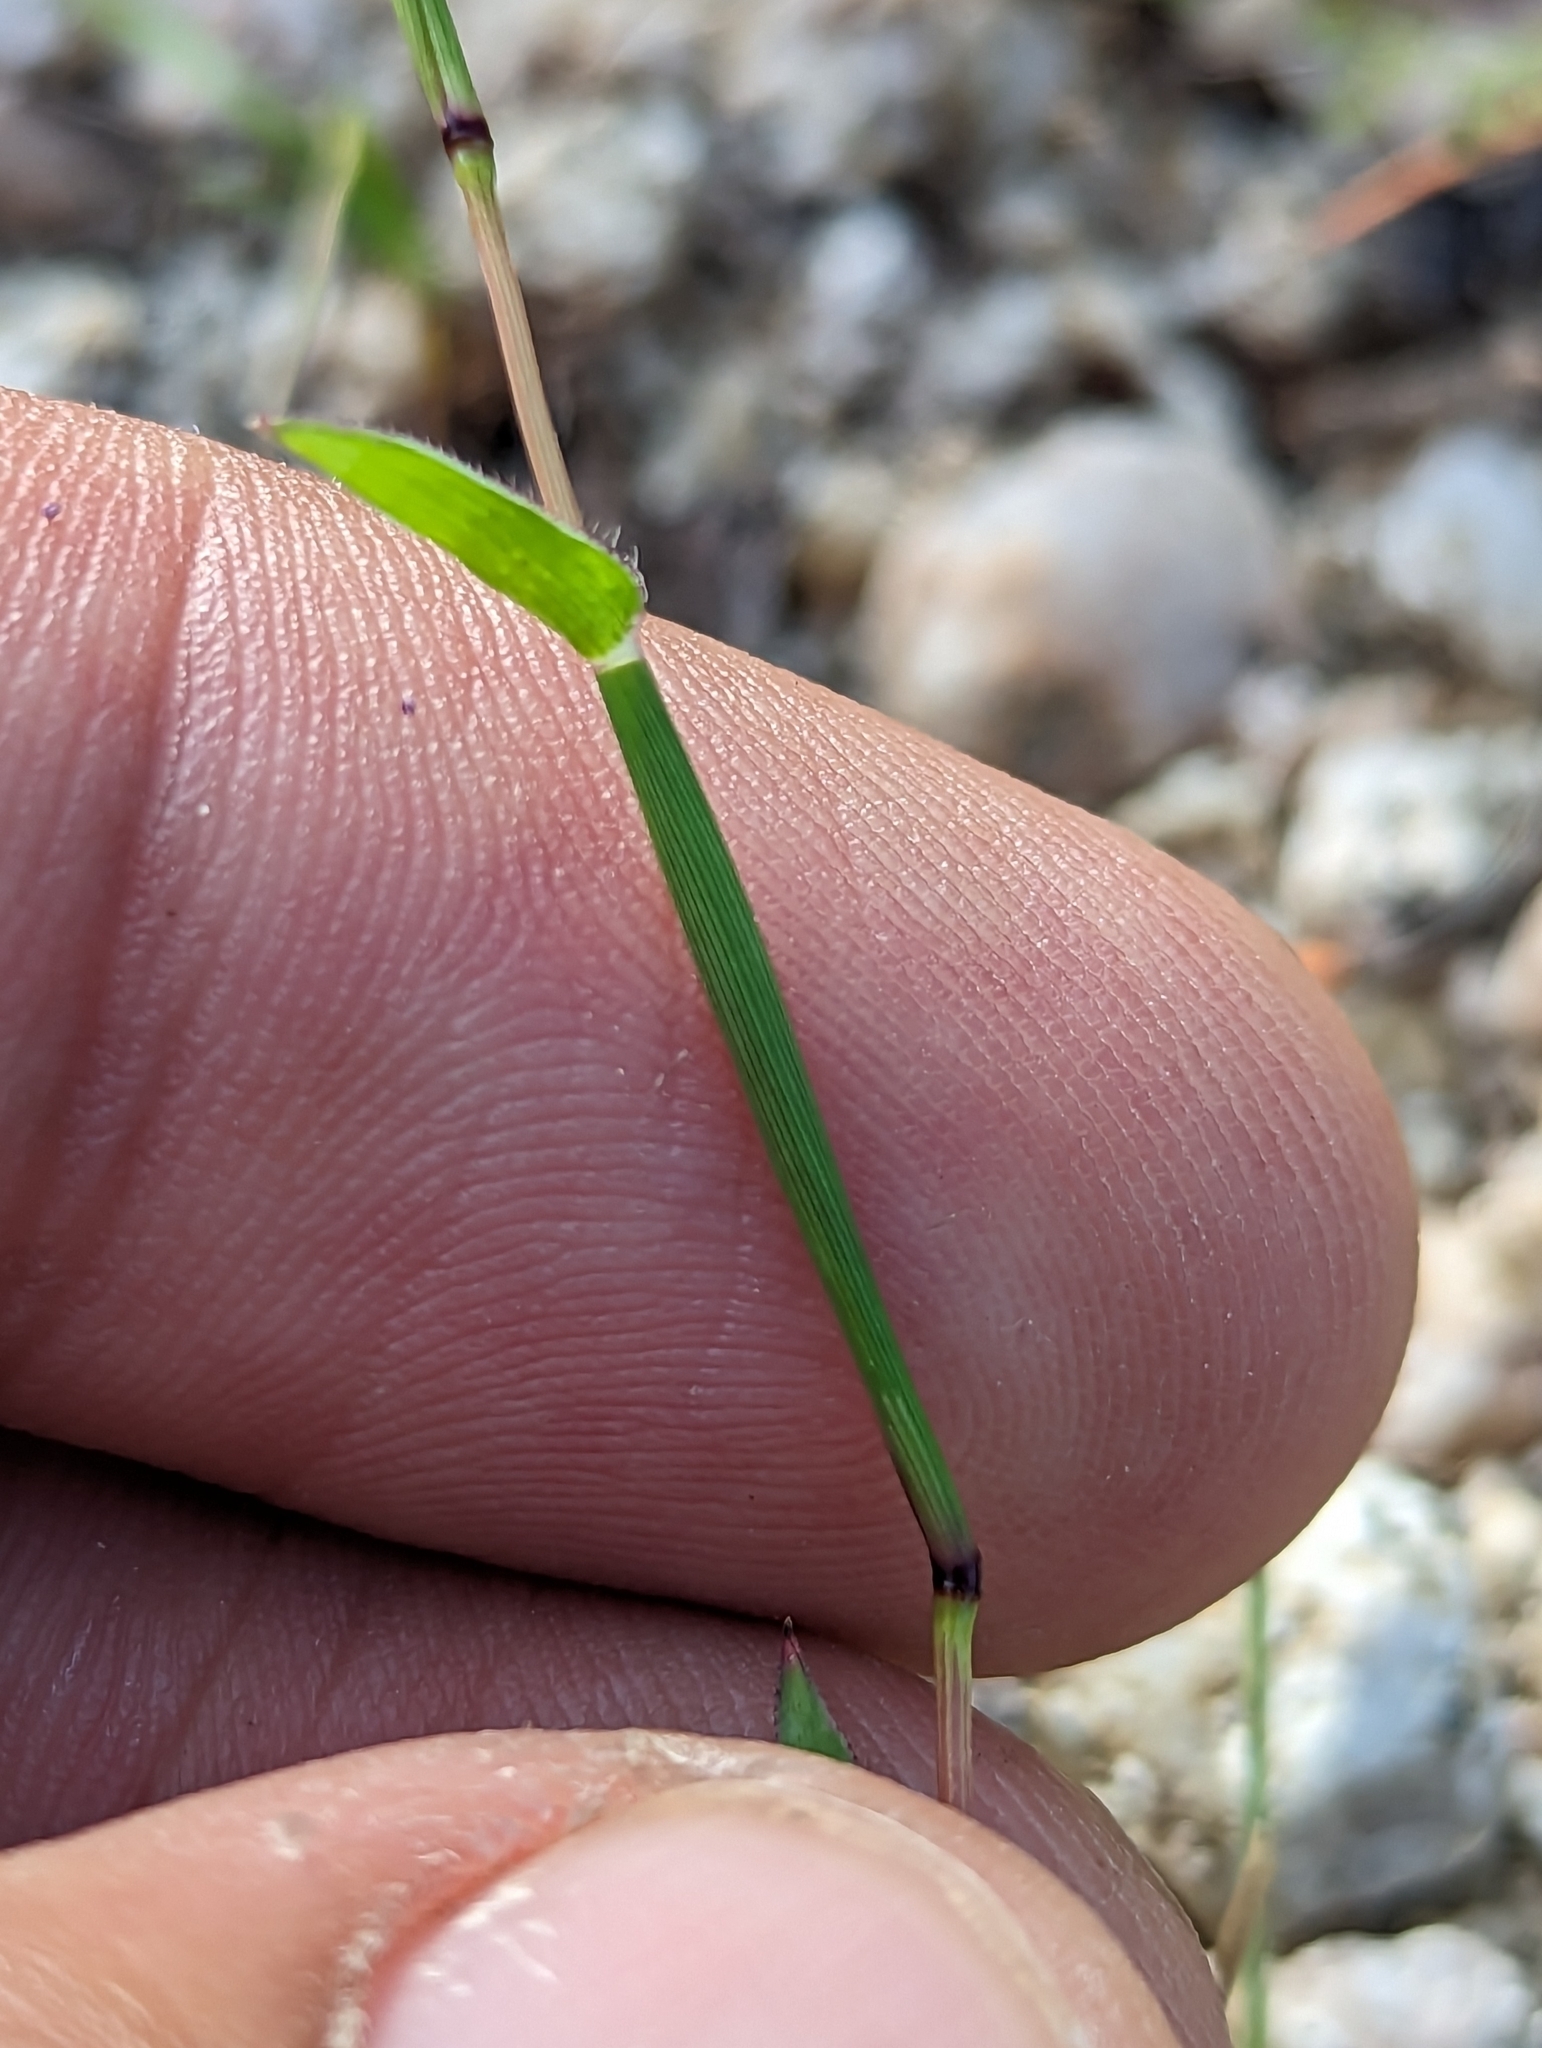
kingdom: Plantae
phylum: Tracheophyta
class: Liliopsida
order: Poales
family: Poaceae
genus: Tragus
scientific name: Tragus berteronianus
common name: African bur-grass
